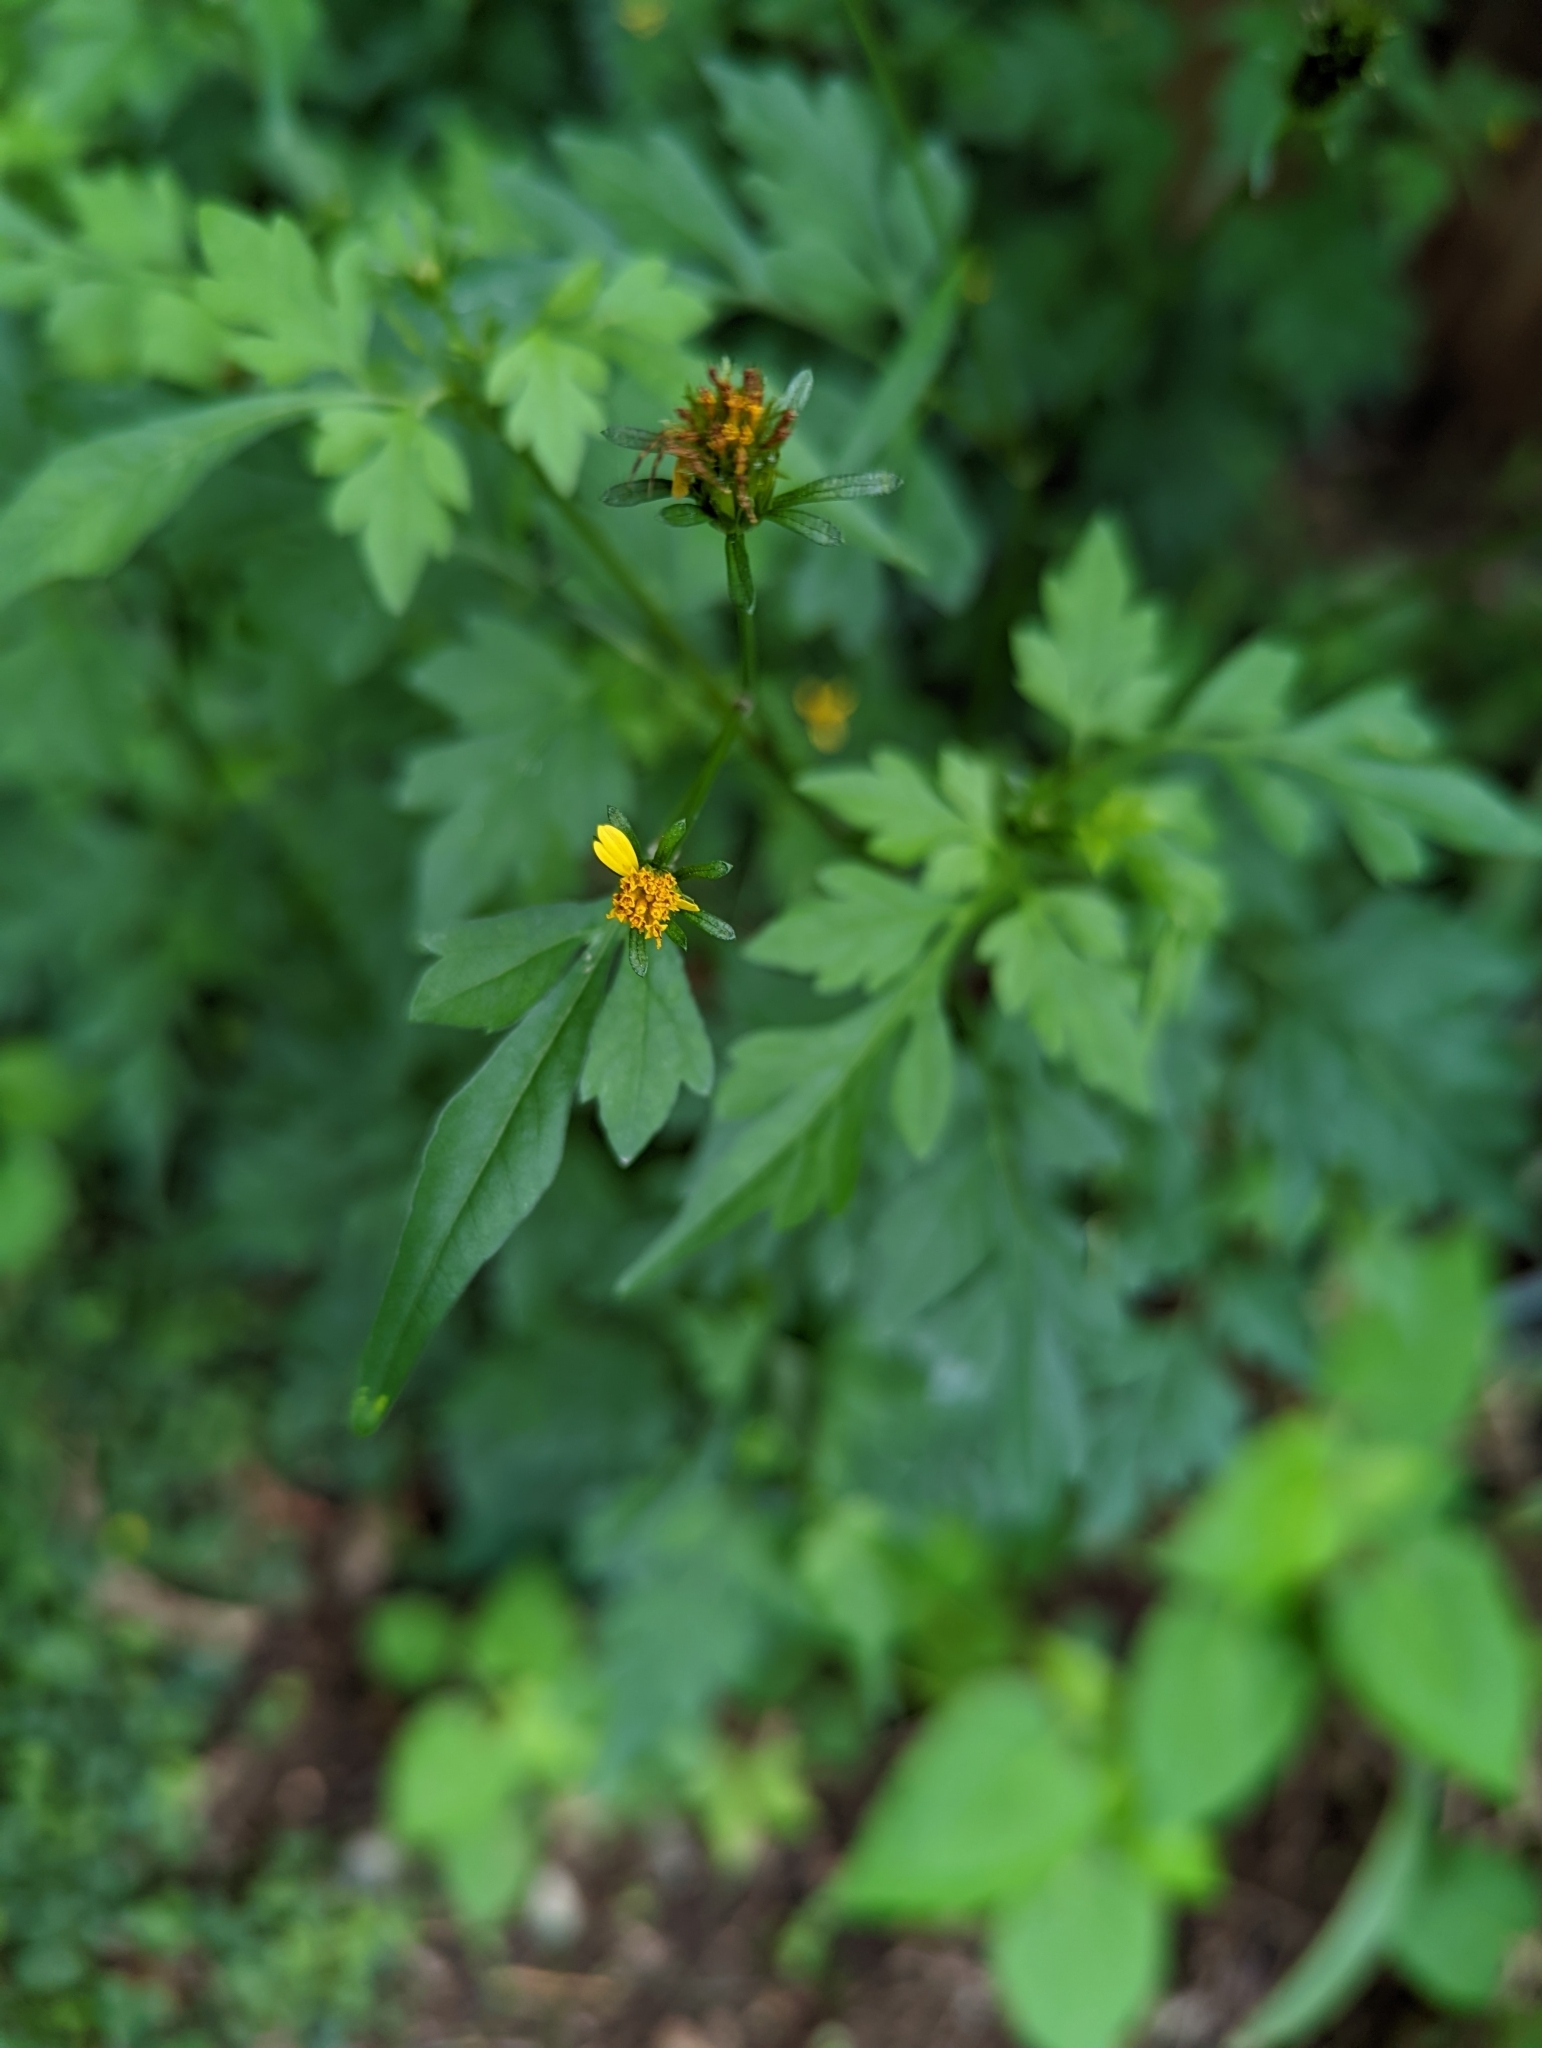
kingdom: Plantae
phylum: Tracheophyta
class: Magnoliopsida
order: Asterales
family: Asteraceae
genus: Bidens
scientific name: Bidens bipinnata
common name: Spanish-needles
